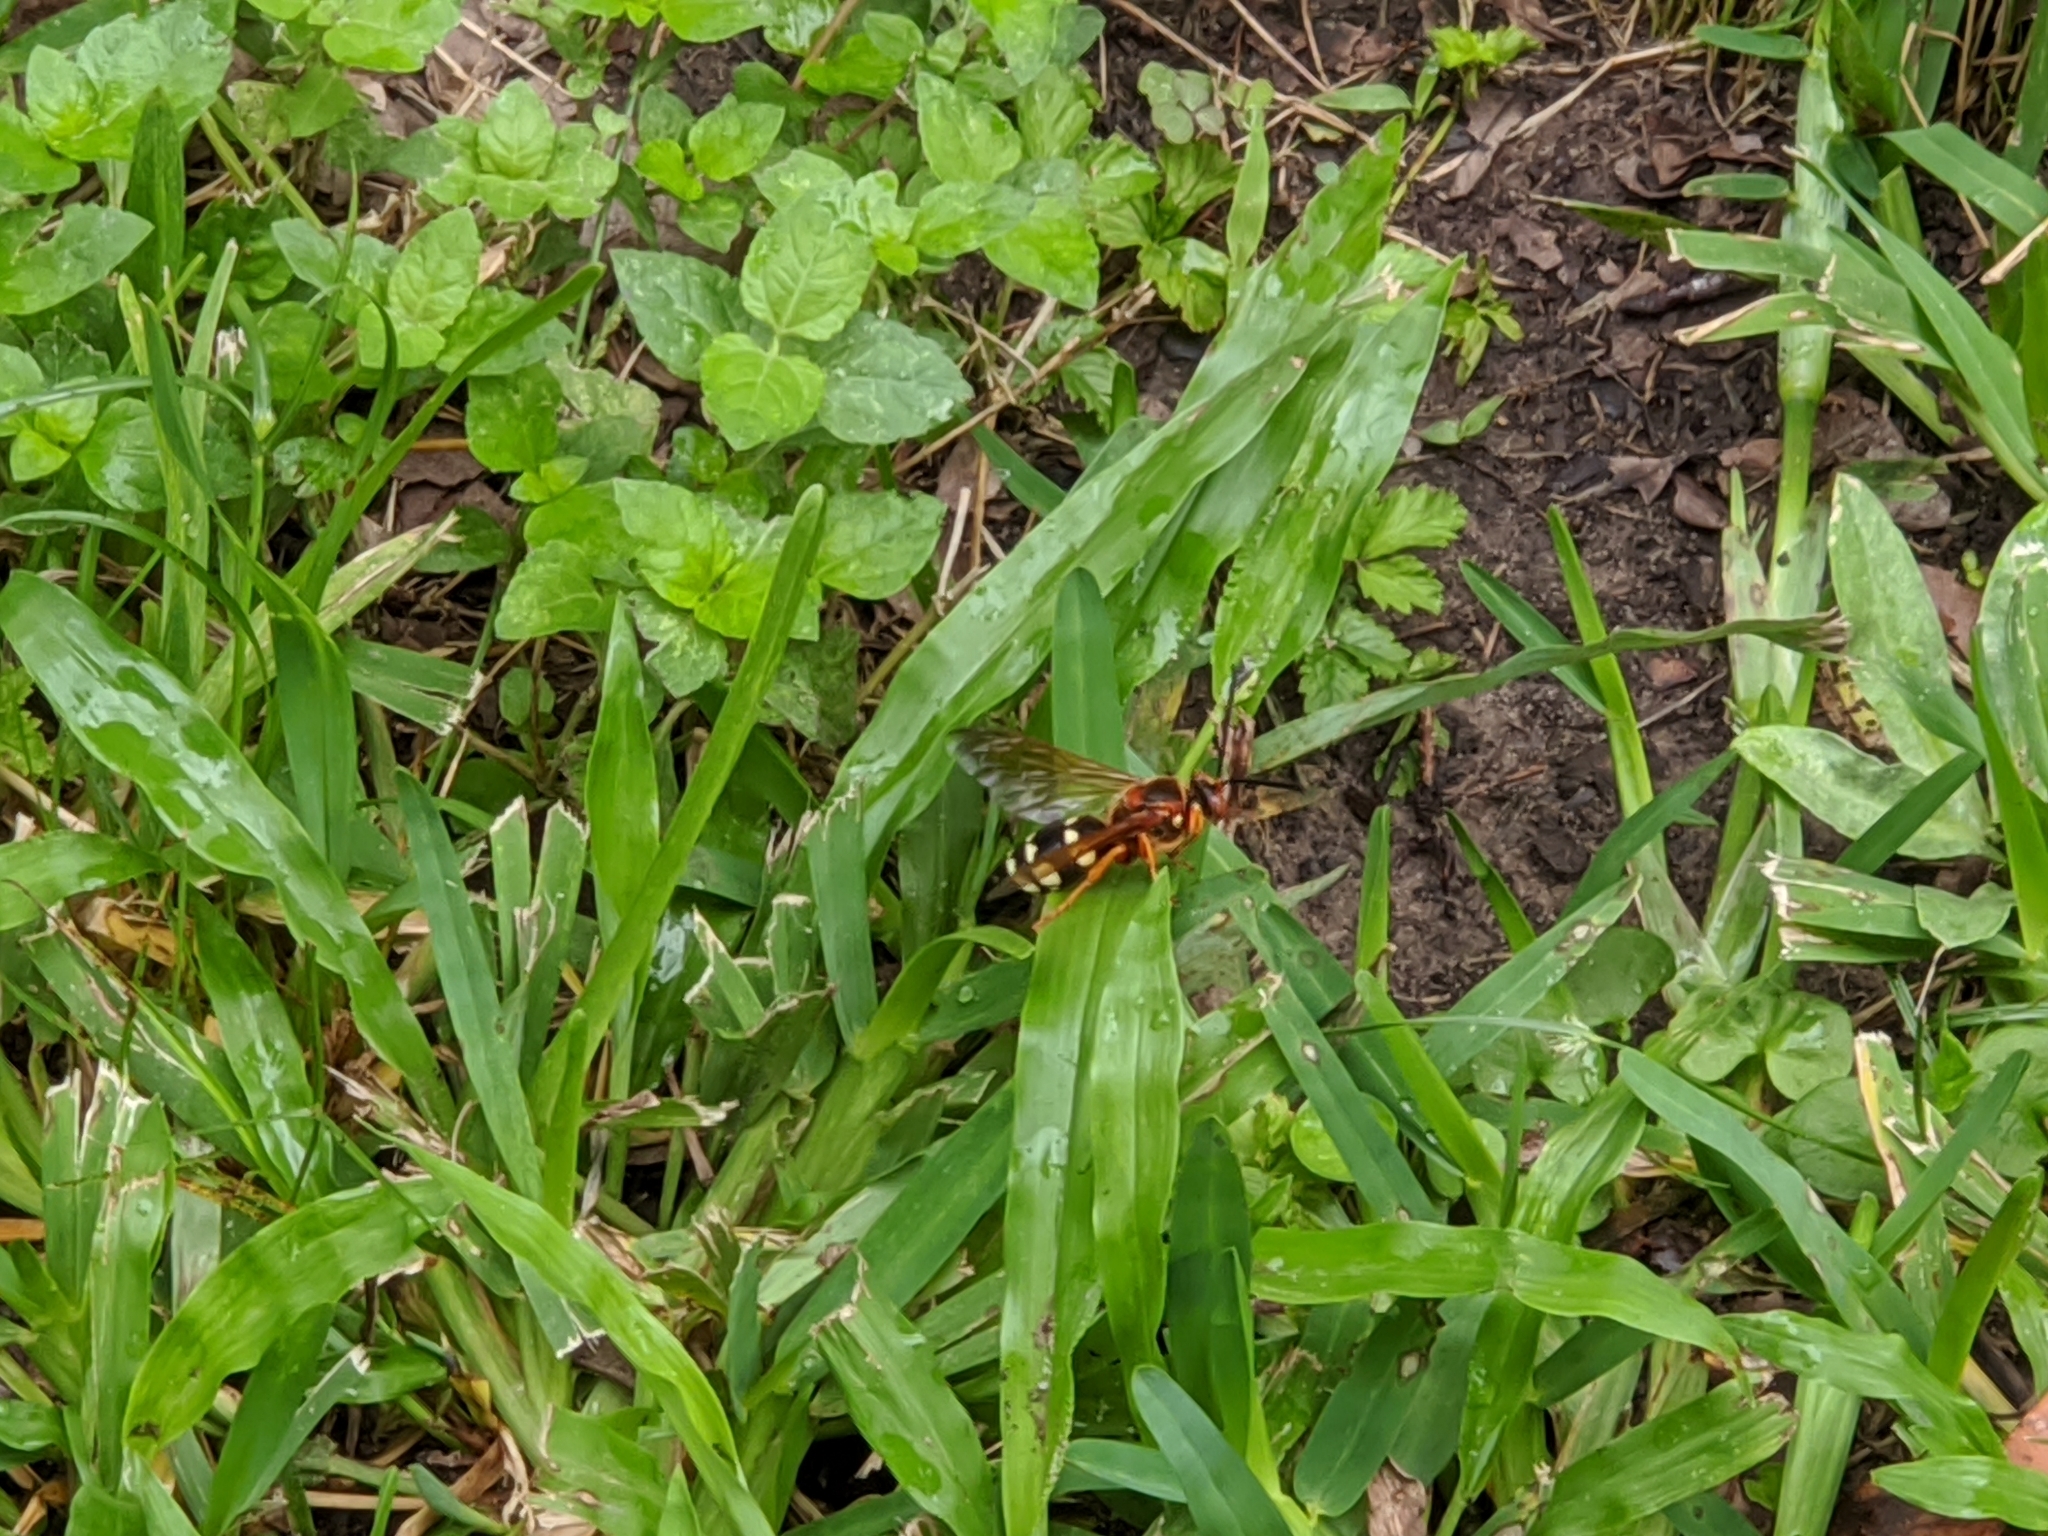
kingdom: Animalia
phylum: Arthropoda
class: Insecta
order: Hymenoptera
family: Crabronidae
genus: Sphecius
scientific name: Sphecius speciosus
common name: Cicada killer
